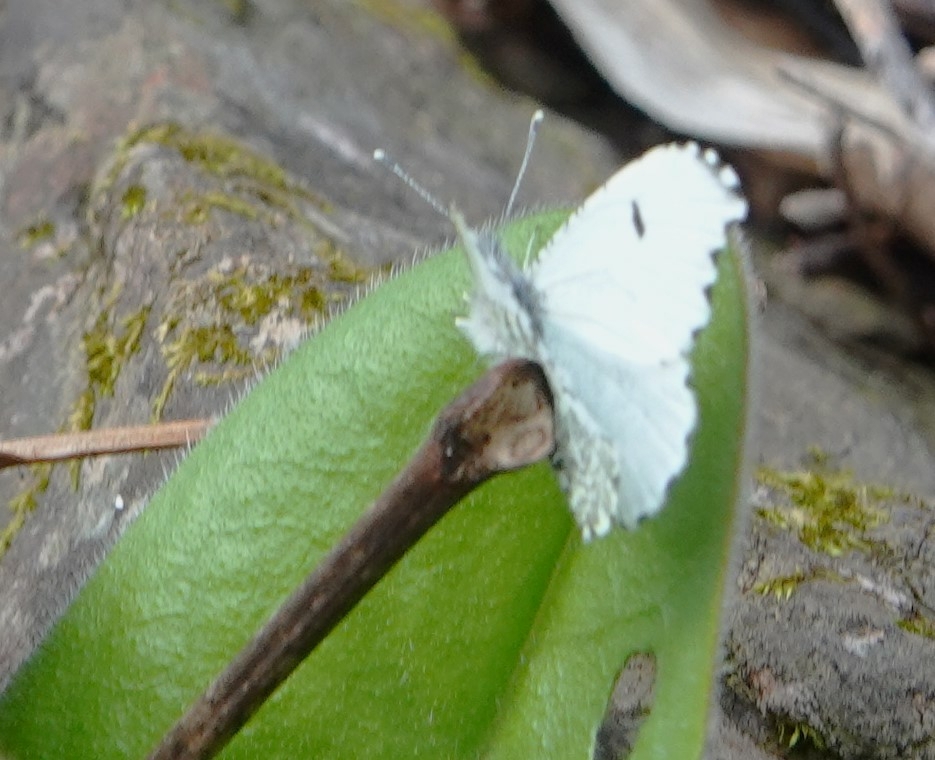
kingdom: Animalia
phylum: Arthropoda
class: Insecta
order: Lepidoptera
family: Pieridae
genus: Anthocharis
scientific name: Anthocharis midea
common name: Falcate orangetip
